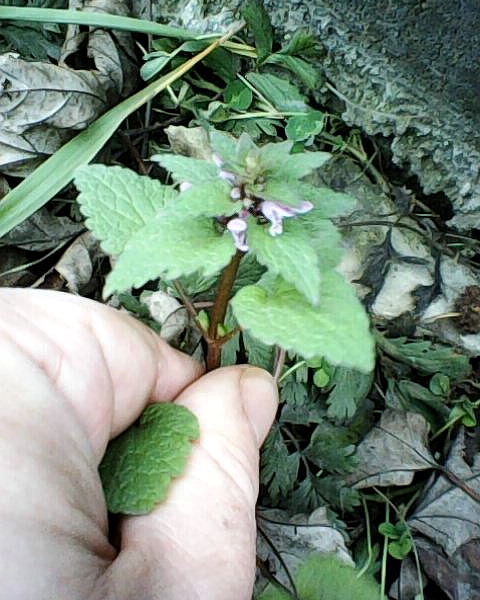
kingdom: Plantae
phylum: Tracheophyta
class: Magnoliopsida
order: Lamiales
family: Lamiaceae
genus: Lamium
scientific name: Lamium purpureum
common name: Red dead-nettle
